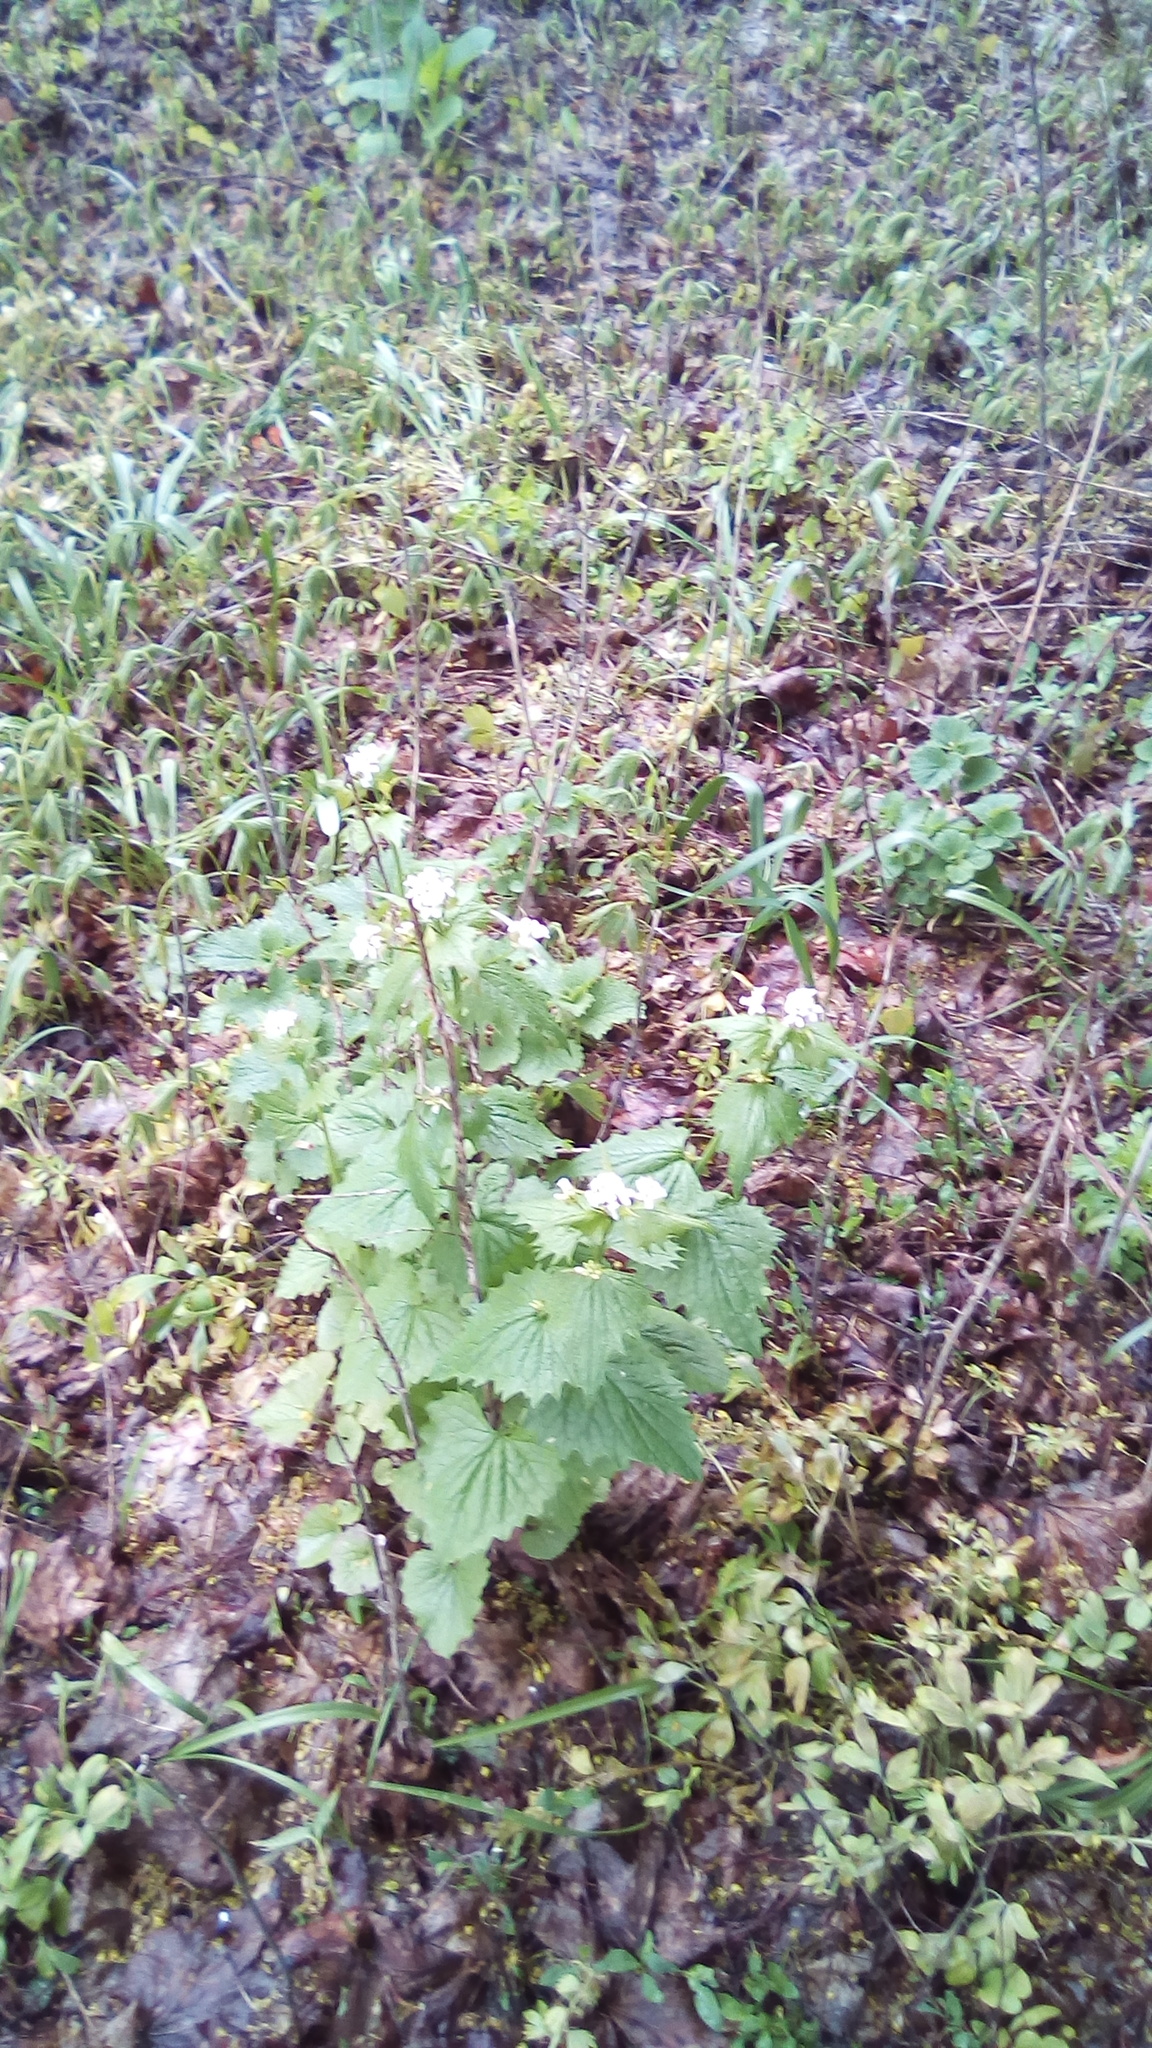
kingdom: Plantae
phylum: Tracheophyta
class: Magnoliopsida
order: Brassicales
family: Brassicaceae
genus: Alliaria
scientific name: Alliaria petiolata
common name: Garlic mustard
